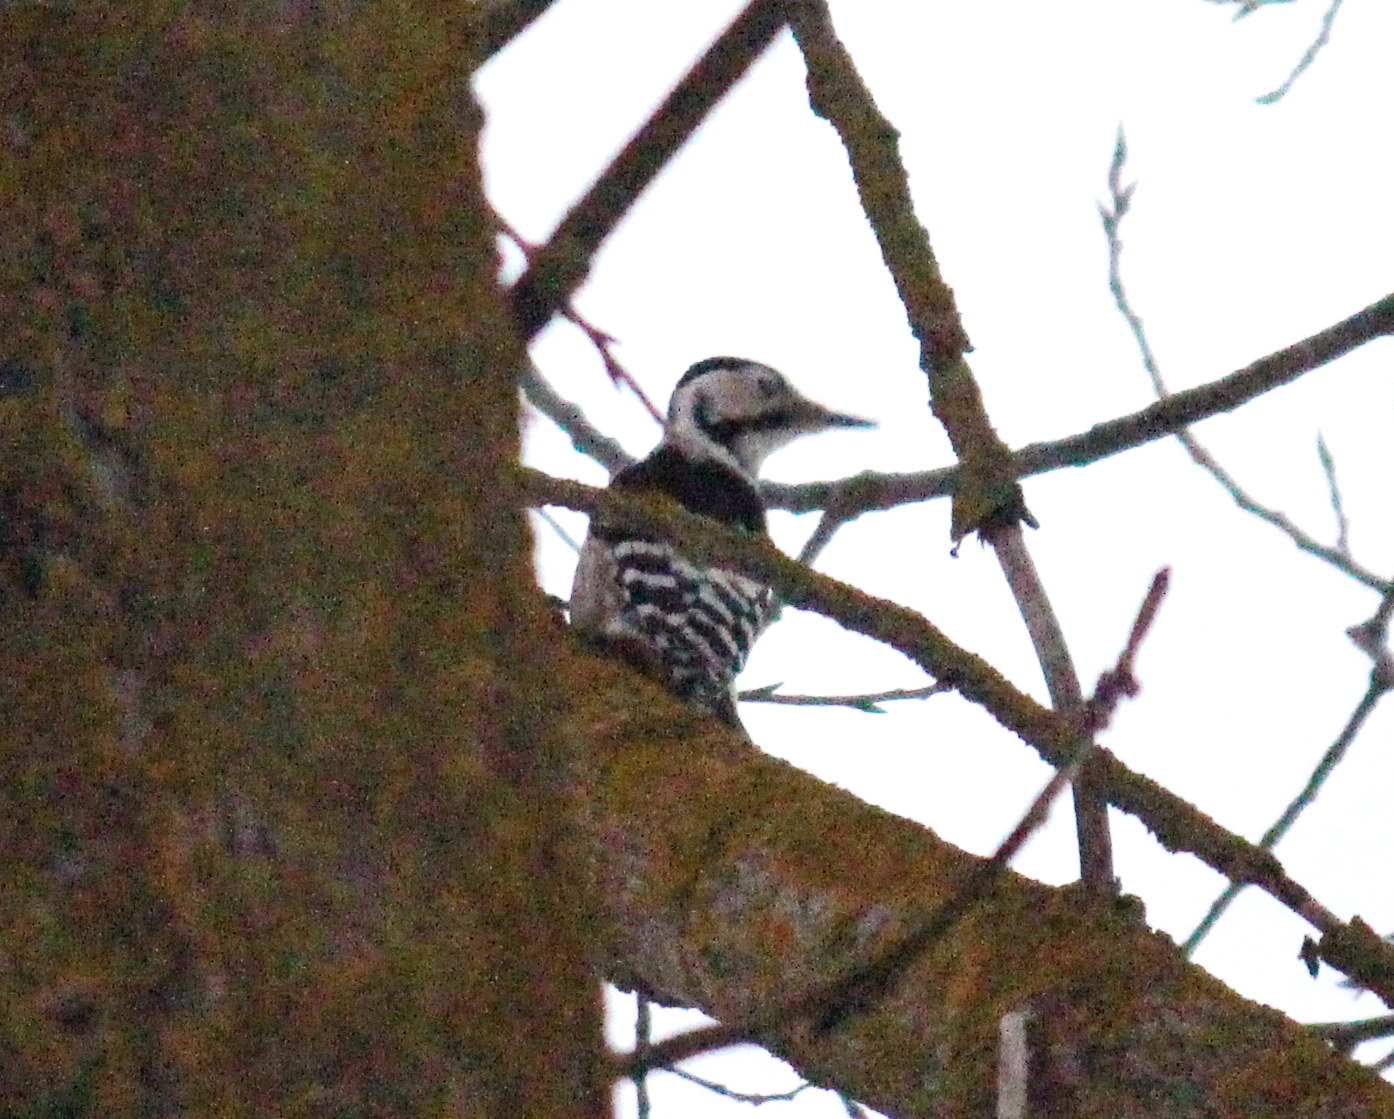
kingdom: Animalia
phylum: Chordata
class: Aves
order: Piciformes
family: Picidae
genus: Dendrocopos
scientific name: Dendrocopos leucotos
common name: White-backed woodpecker
